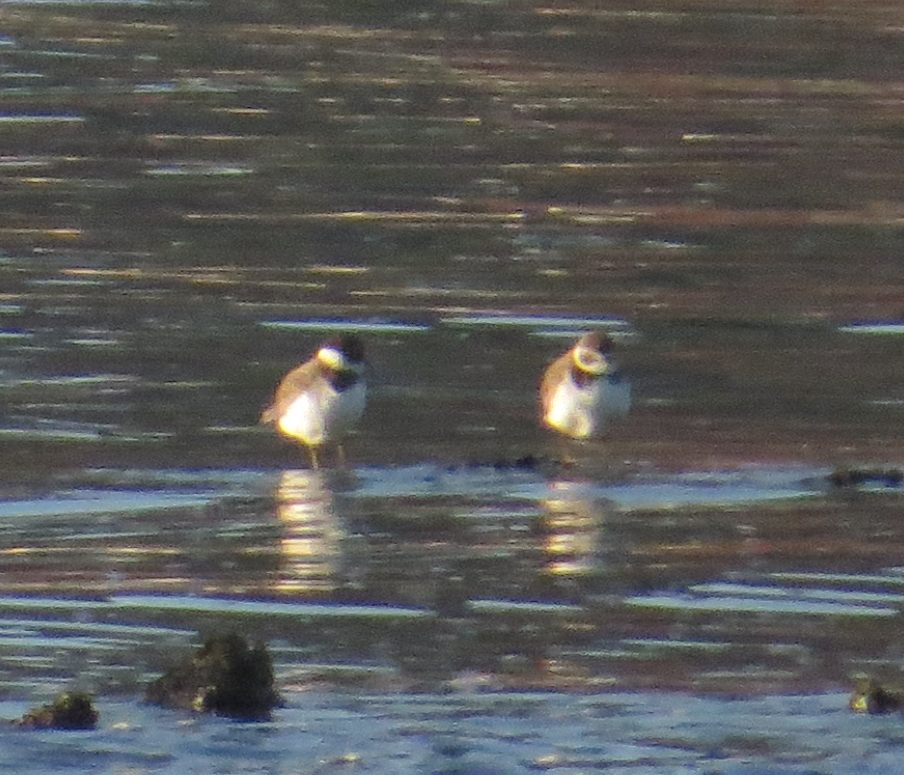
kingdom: Animalia
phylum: Chordata
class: Aves
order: Charadriiformes
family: Charadriidae
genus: Charadrius
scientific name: Charadrius semipalmatus
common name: Semipalmated plover
